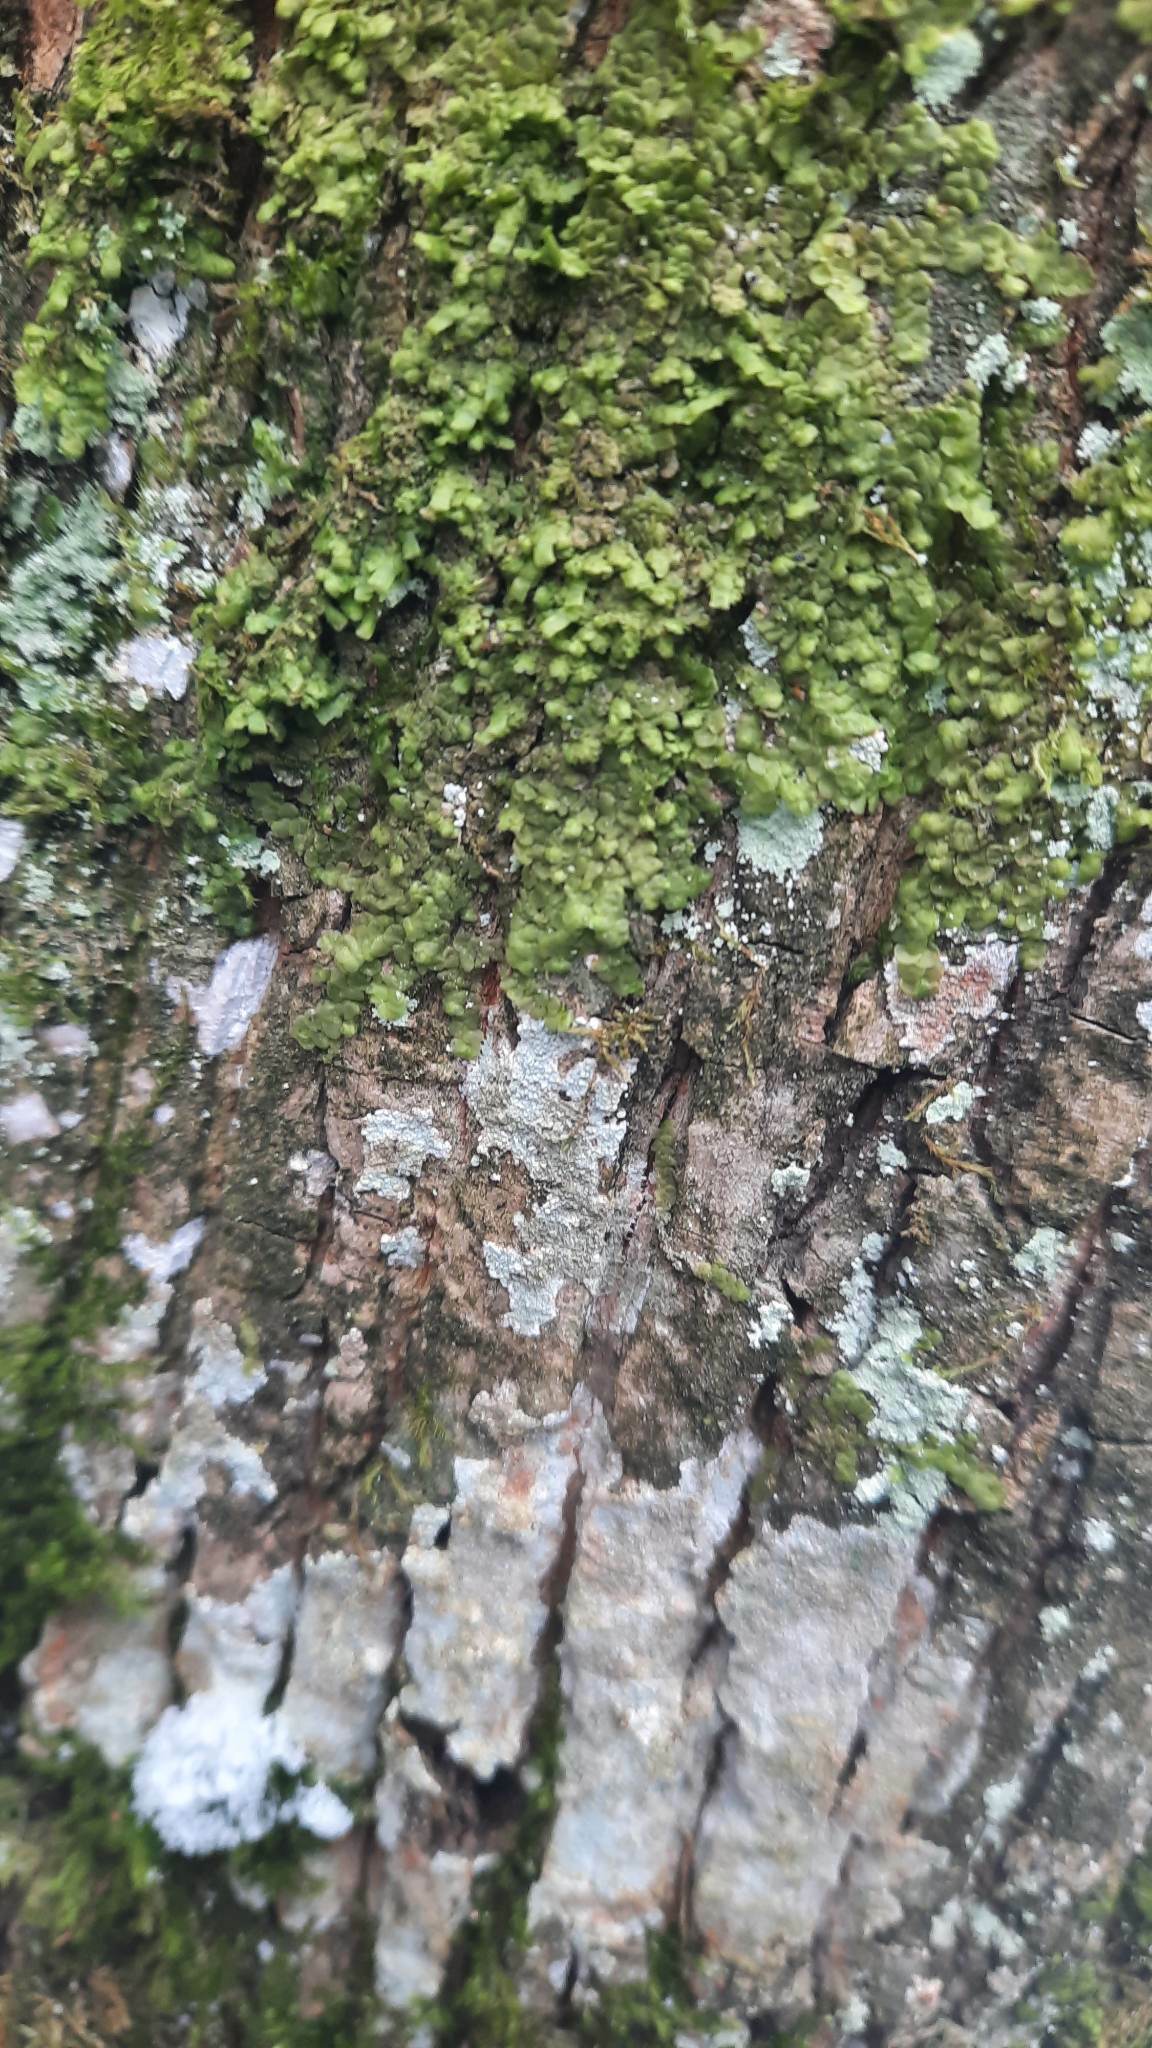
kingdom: Plantae
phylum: Marchantiophyta
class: Jungermanniopsida
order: Porellales
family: Radulaceae
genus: Radula
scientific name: Radula complanata
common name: Flat-leaved scalewort
